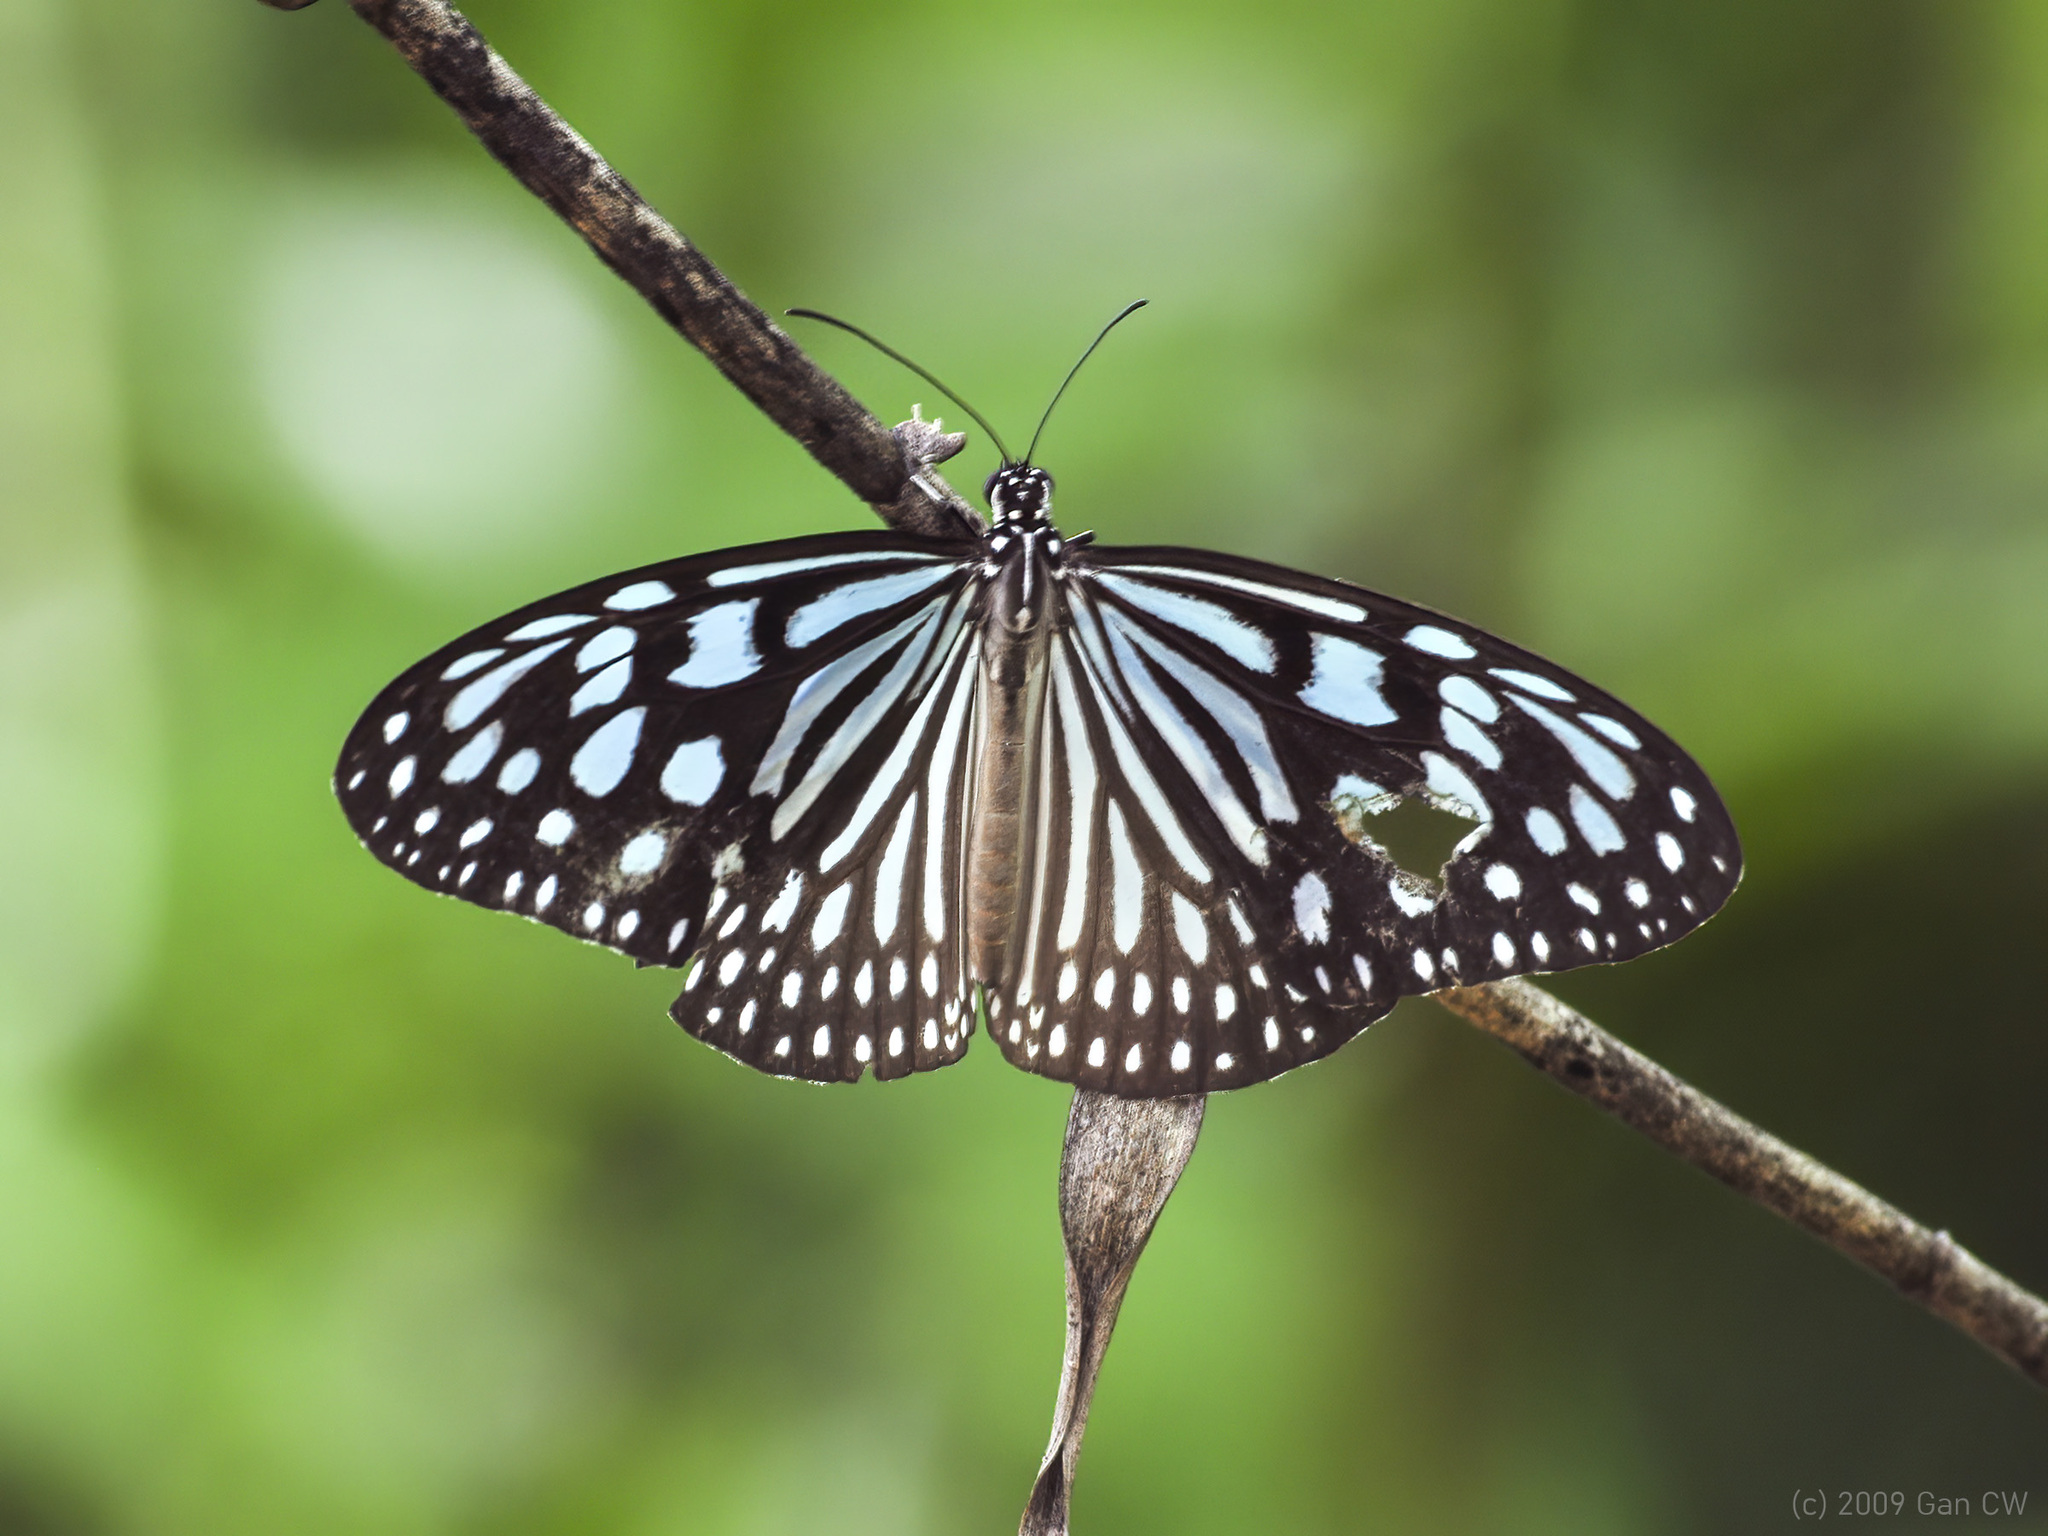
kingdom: Animalia
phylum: Arthropoda
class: Insecta
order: Lepidoptera
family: Nymphalidae
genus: Ideopsis
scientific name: Ideopsis similis
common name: Ceylon blue glassy tiger
